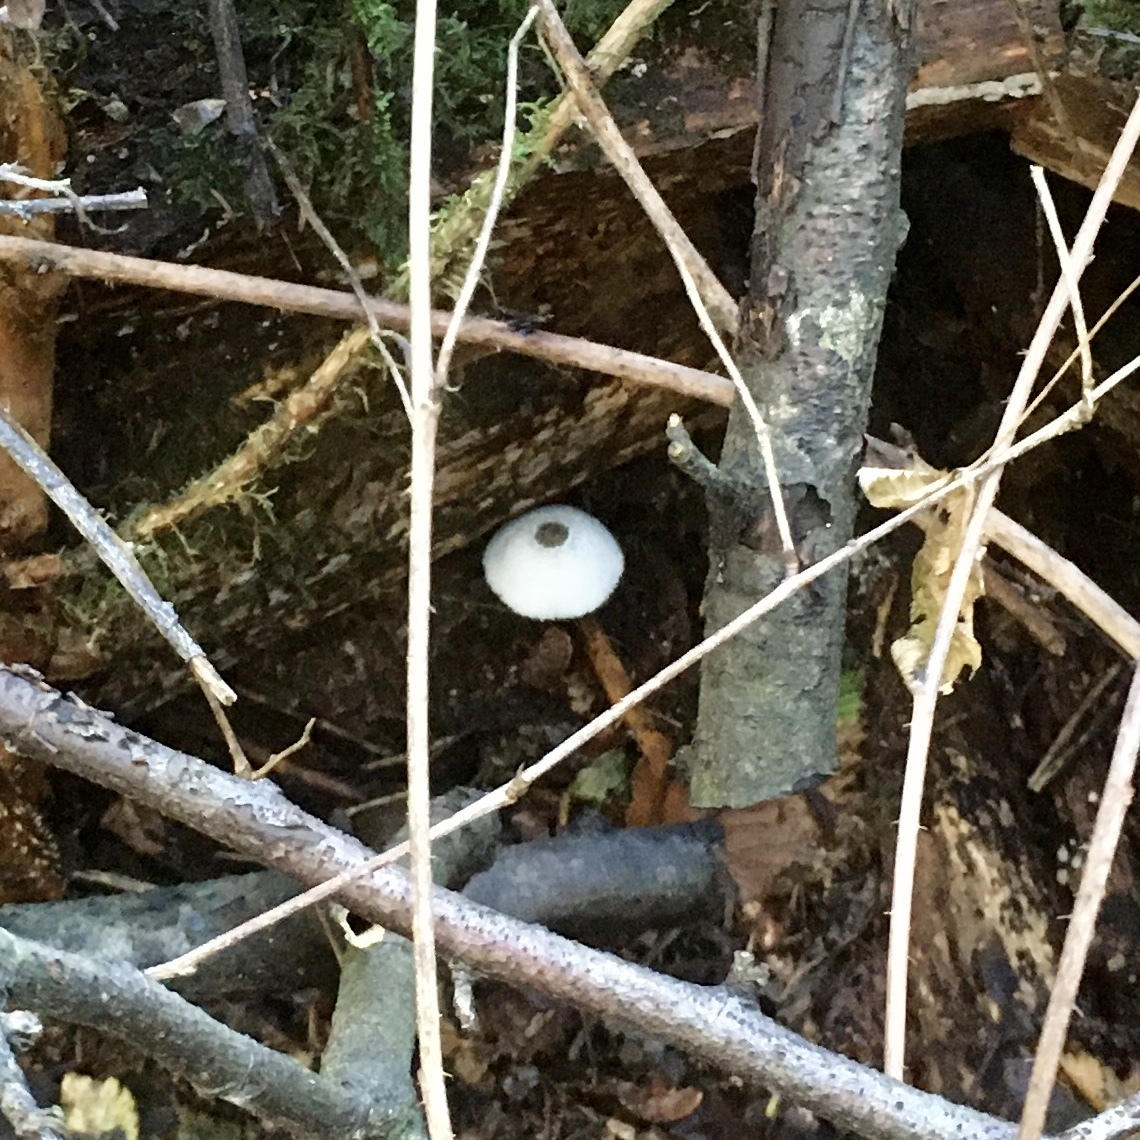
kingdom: Fungi
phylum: Basidiomycota
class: Agaricomycetes
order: Agaricales
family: Agaricaceae
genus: Leucocoprinus
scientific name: Leucocoprinus brebissonii
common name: Skullcap dapperling
